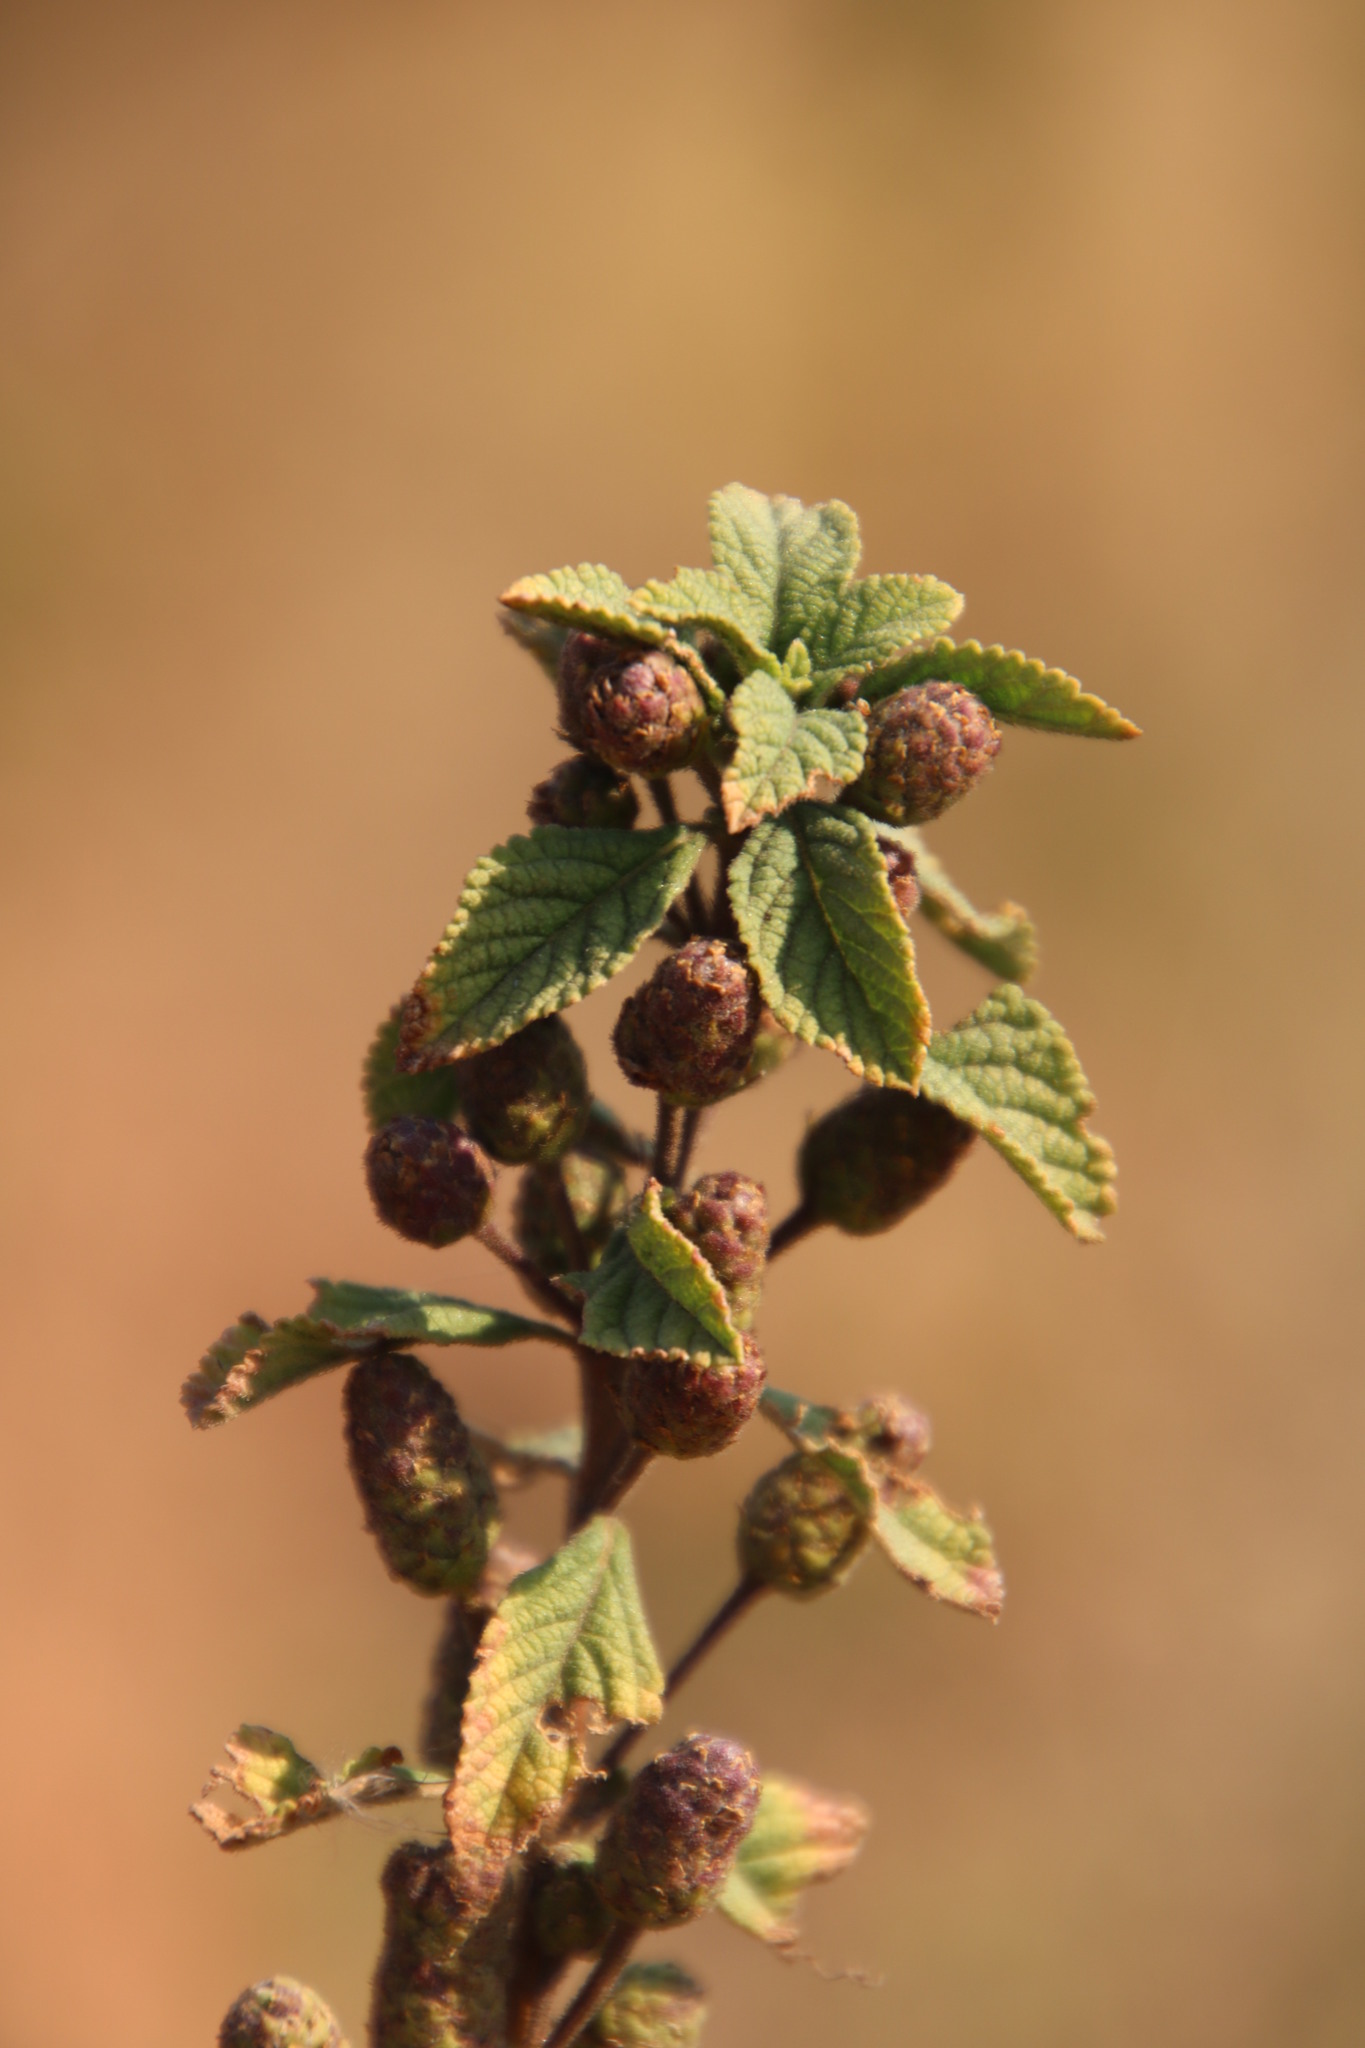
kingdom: Plantae
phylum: Tracheophyta
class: Magnoliopsida
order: Lamiales
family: Verbenaceae
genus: Lippia
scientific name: Lippia javanica
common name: Lemonbush
